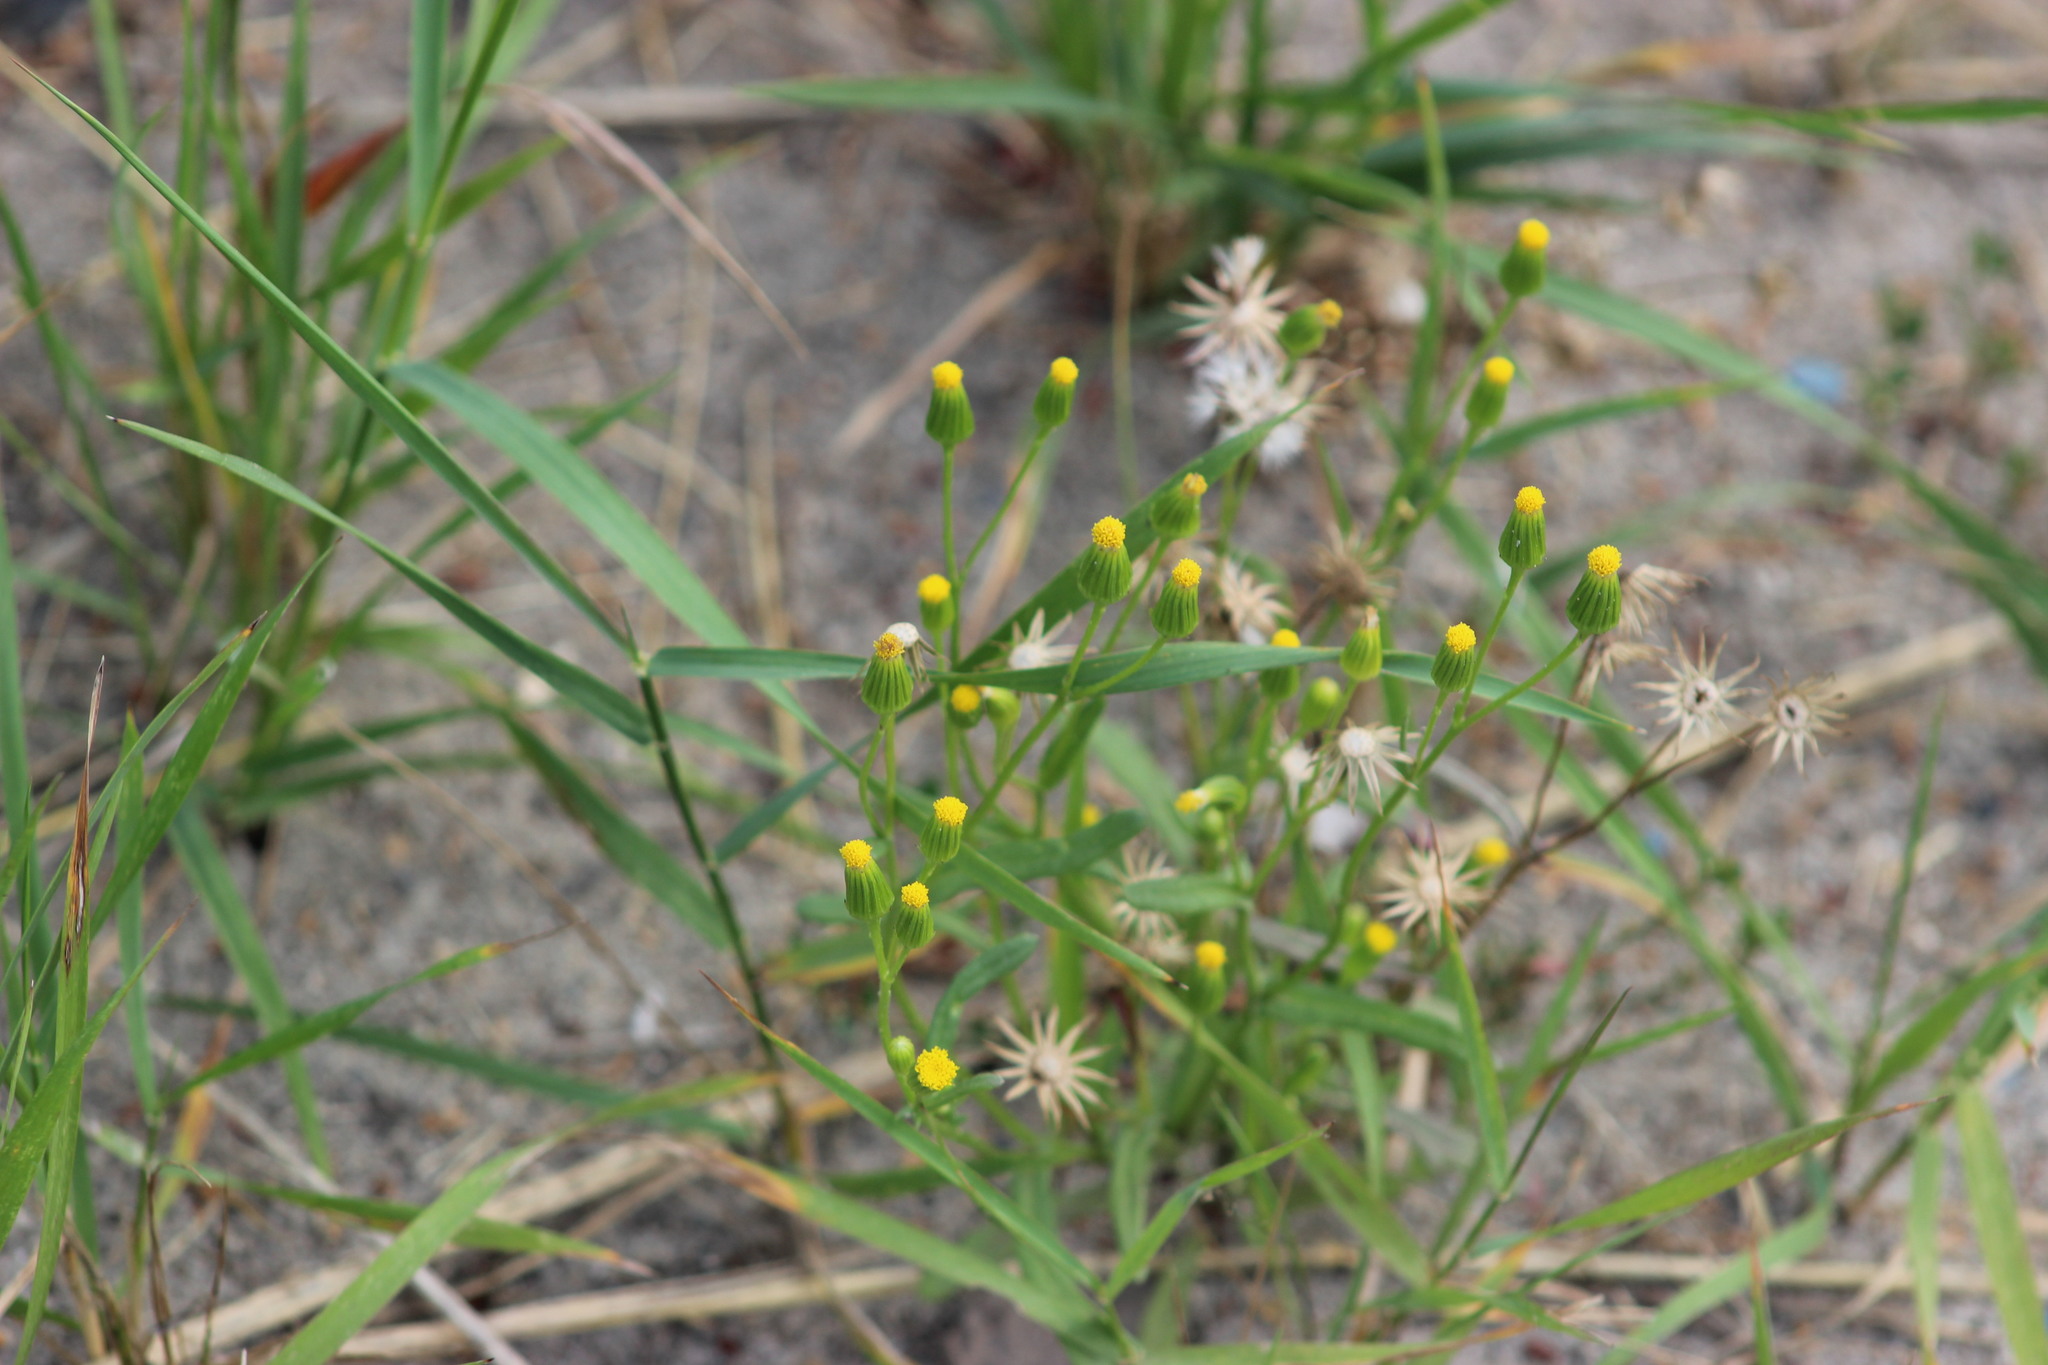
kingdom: Plantae
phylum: Tracheophyta
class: Magnoliopsida
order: Asterales
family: Asteraceae
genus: Senecio
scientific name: Senecio dubitabilis
